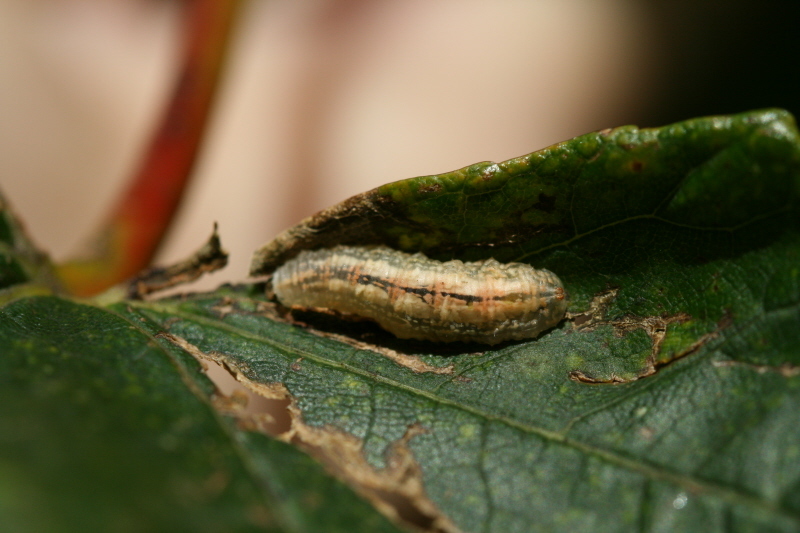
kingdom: Animalia
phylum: Arthropoda
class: Insecta
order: Diptera
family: Syrphidae
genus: Syrphus
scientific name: Syrphus
